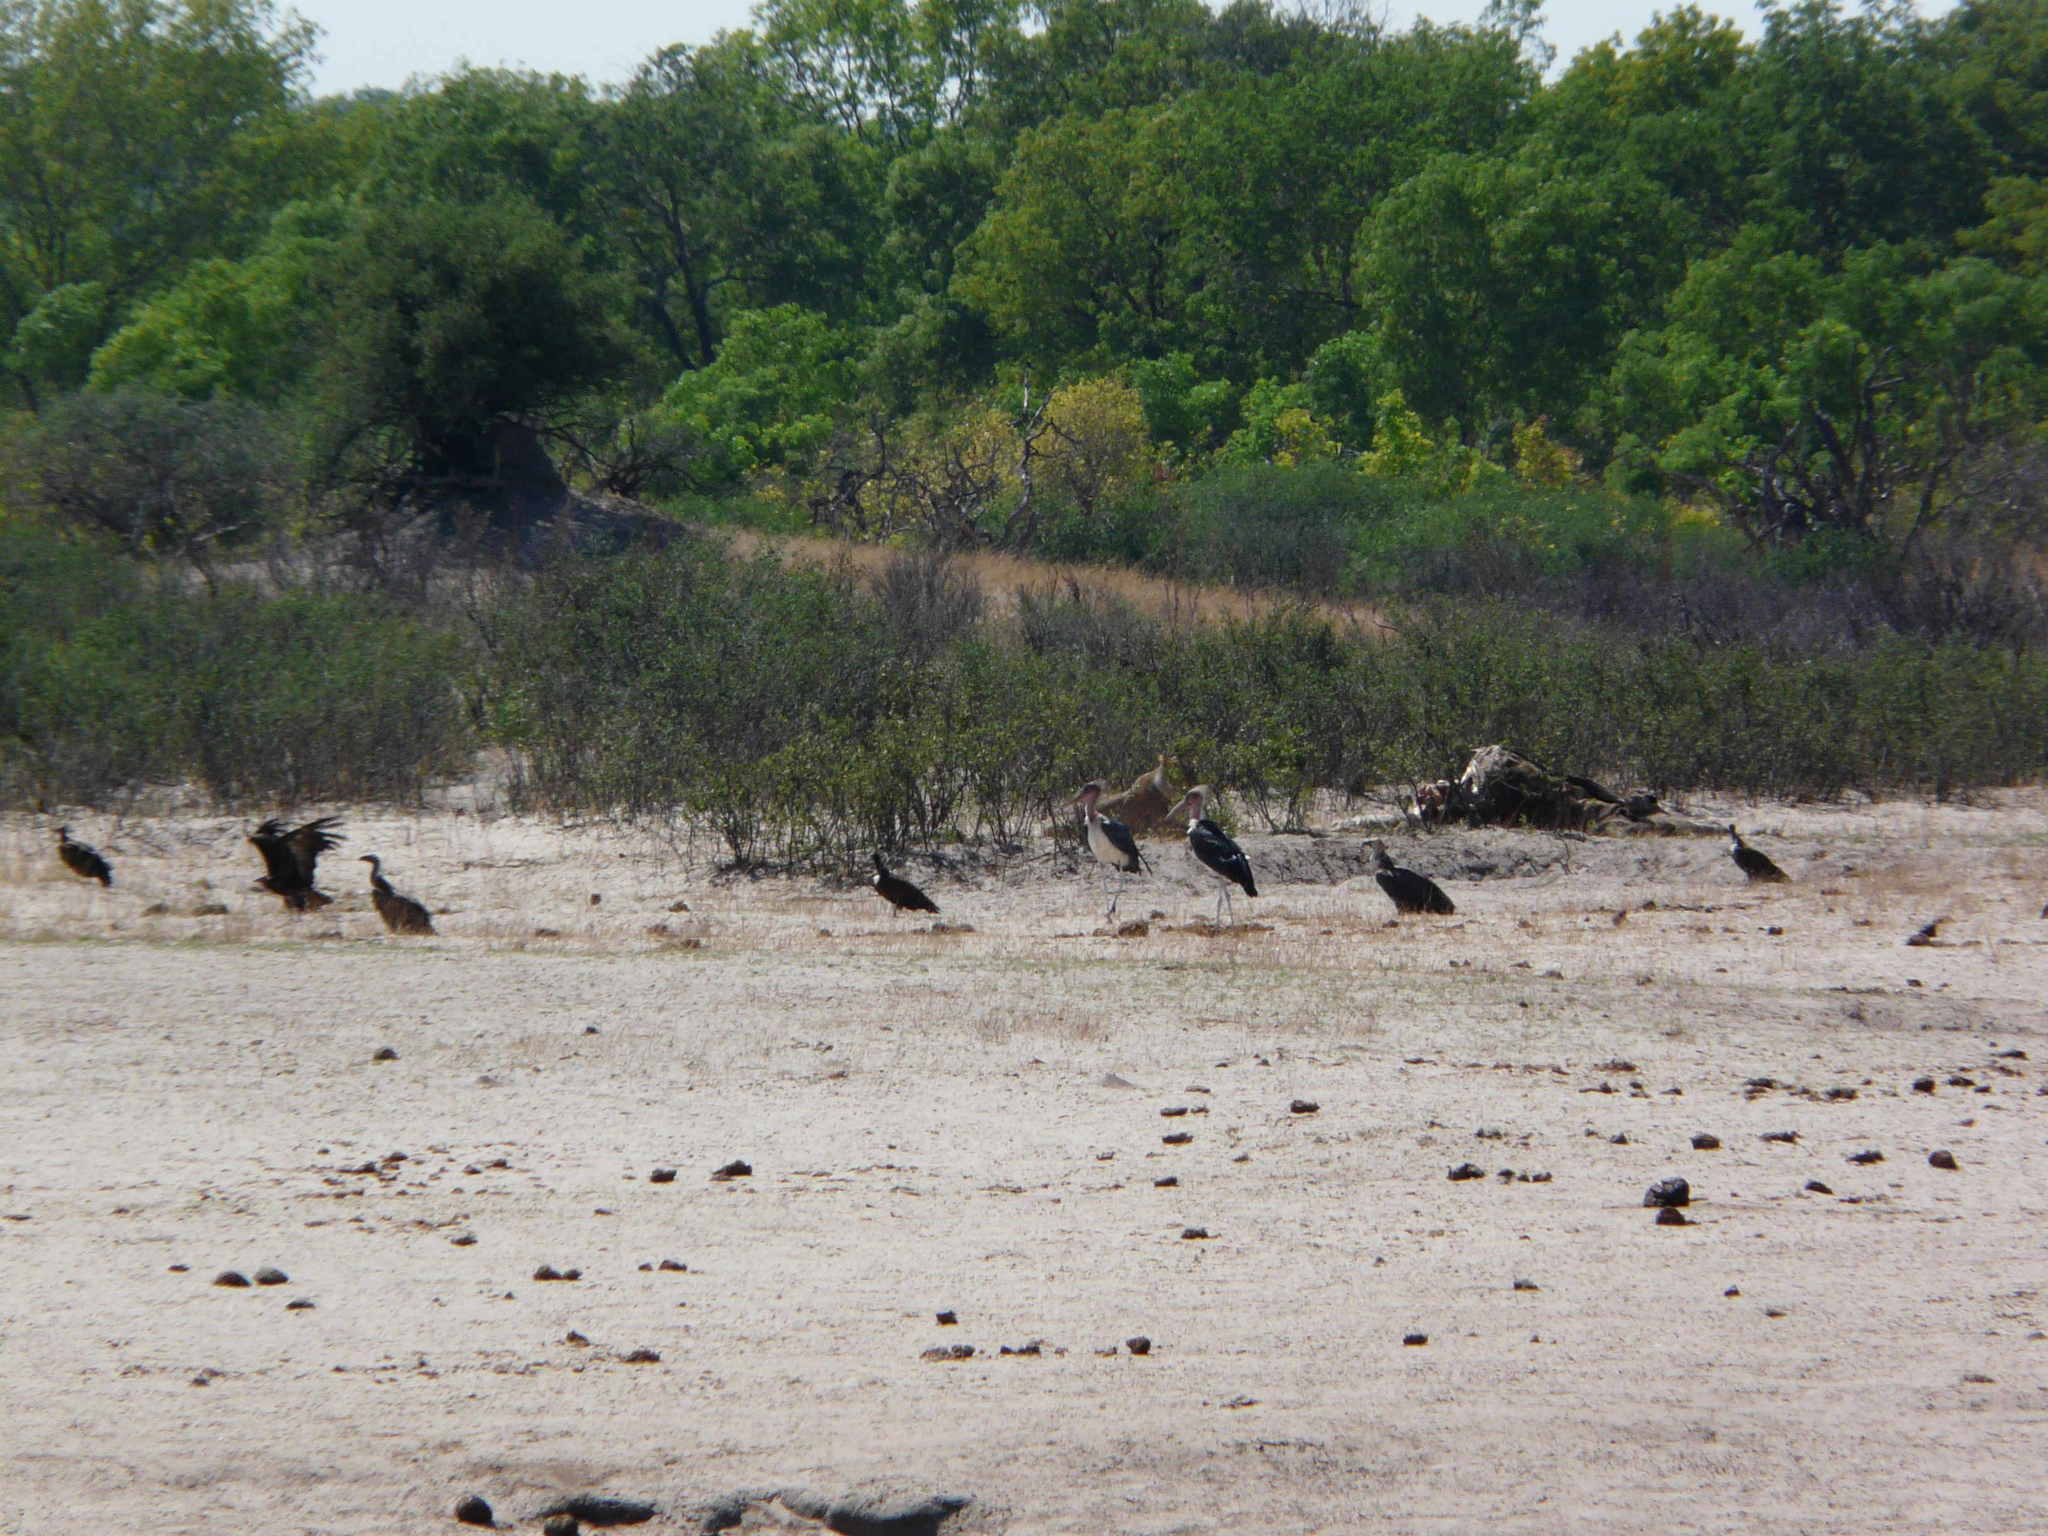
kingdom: Animalia
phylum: Chordata
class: Mammalia
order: Carnivora
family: Felidae
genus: Panthera
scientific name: Panthera leo
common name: Lion
